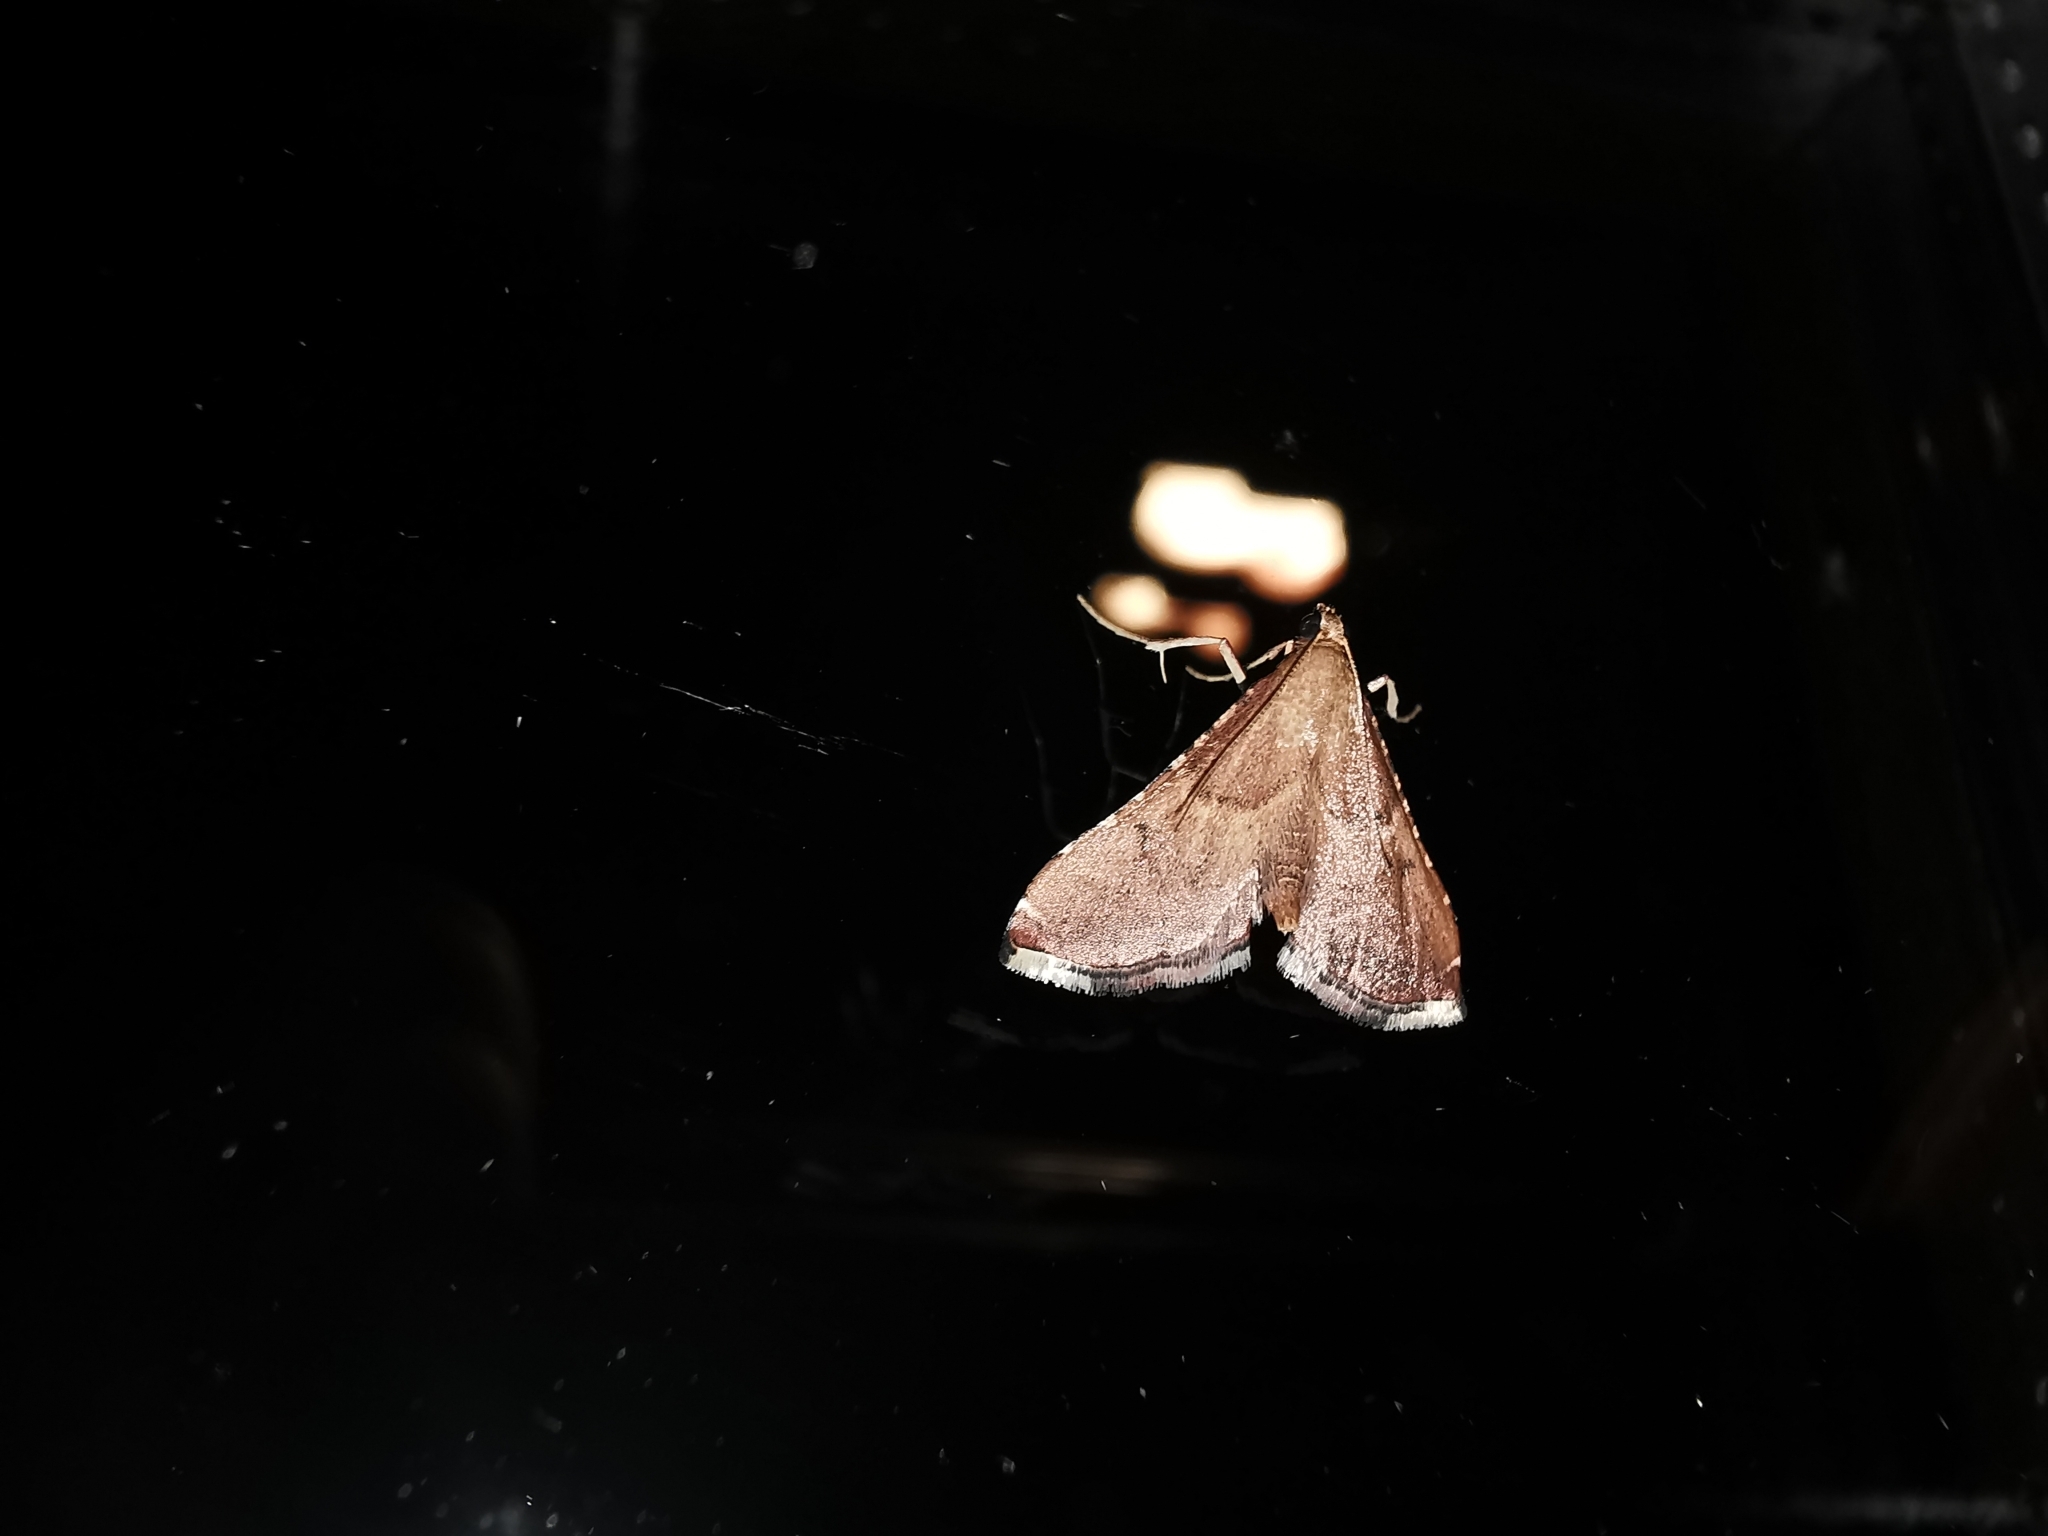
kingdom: Animalia
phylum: Arthropoda
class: Insecta
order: Lepidoptera
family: Pyralidae
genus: Endotricha
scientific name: Endotricha flammealis
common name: Rosy tabby
